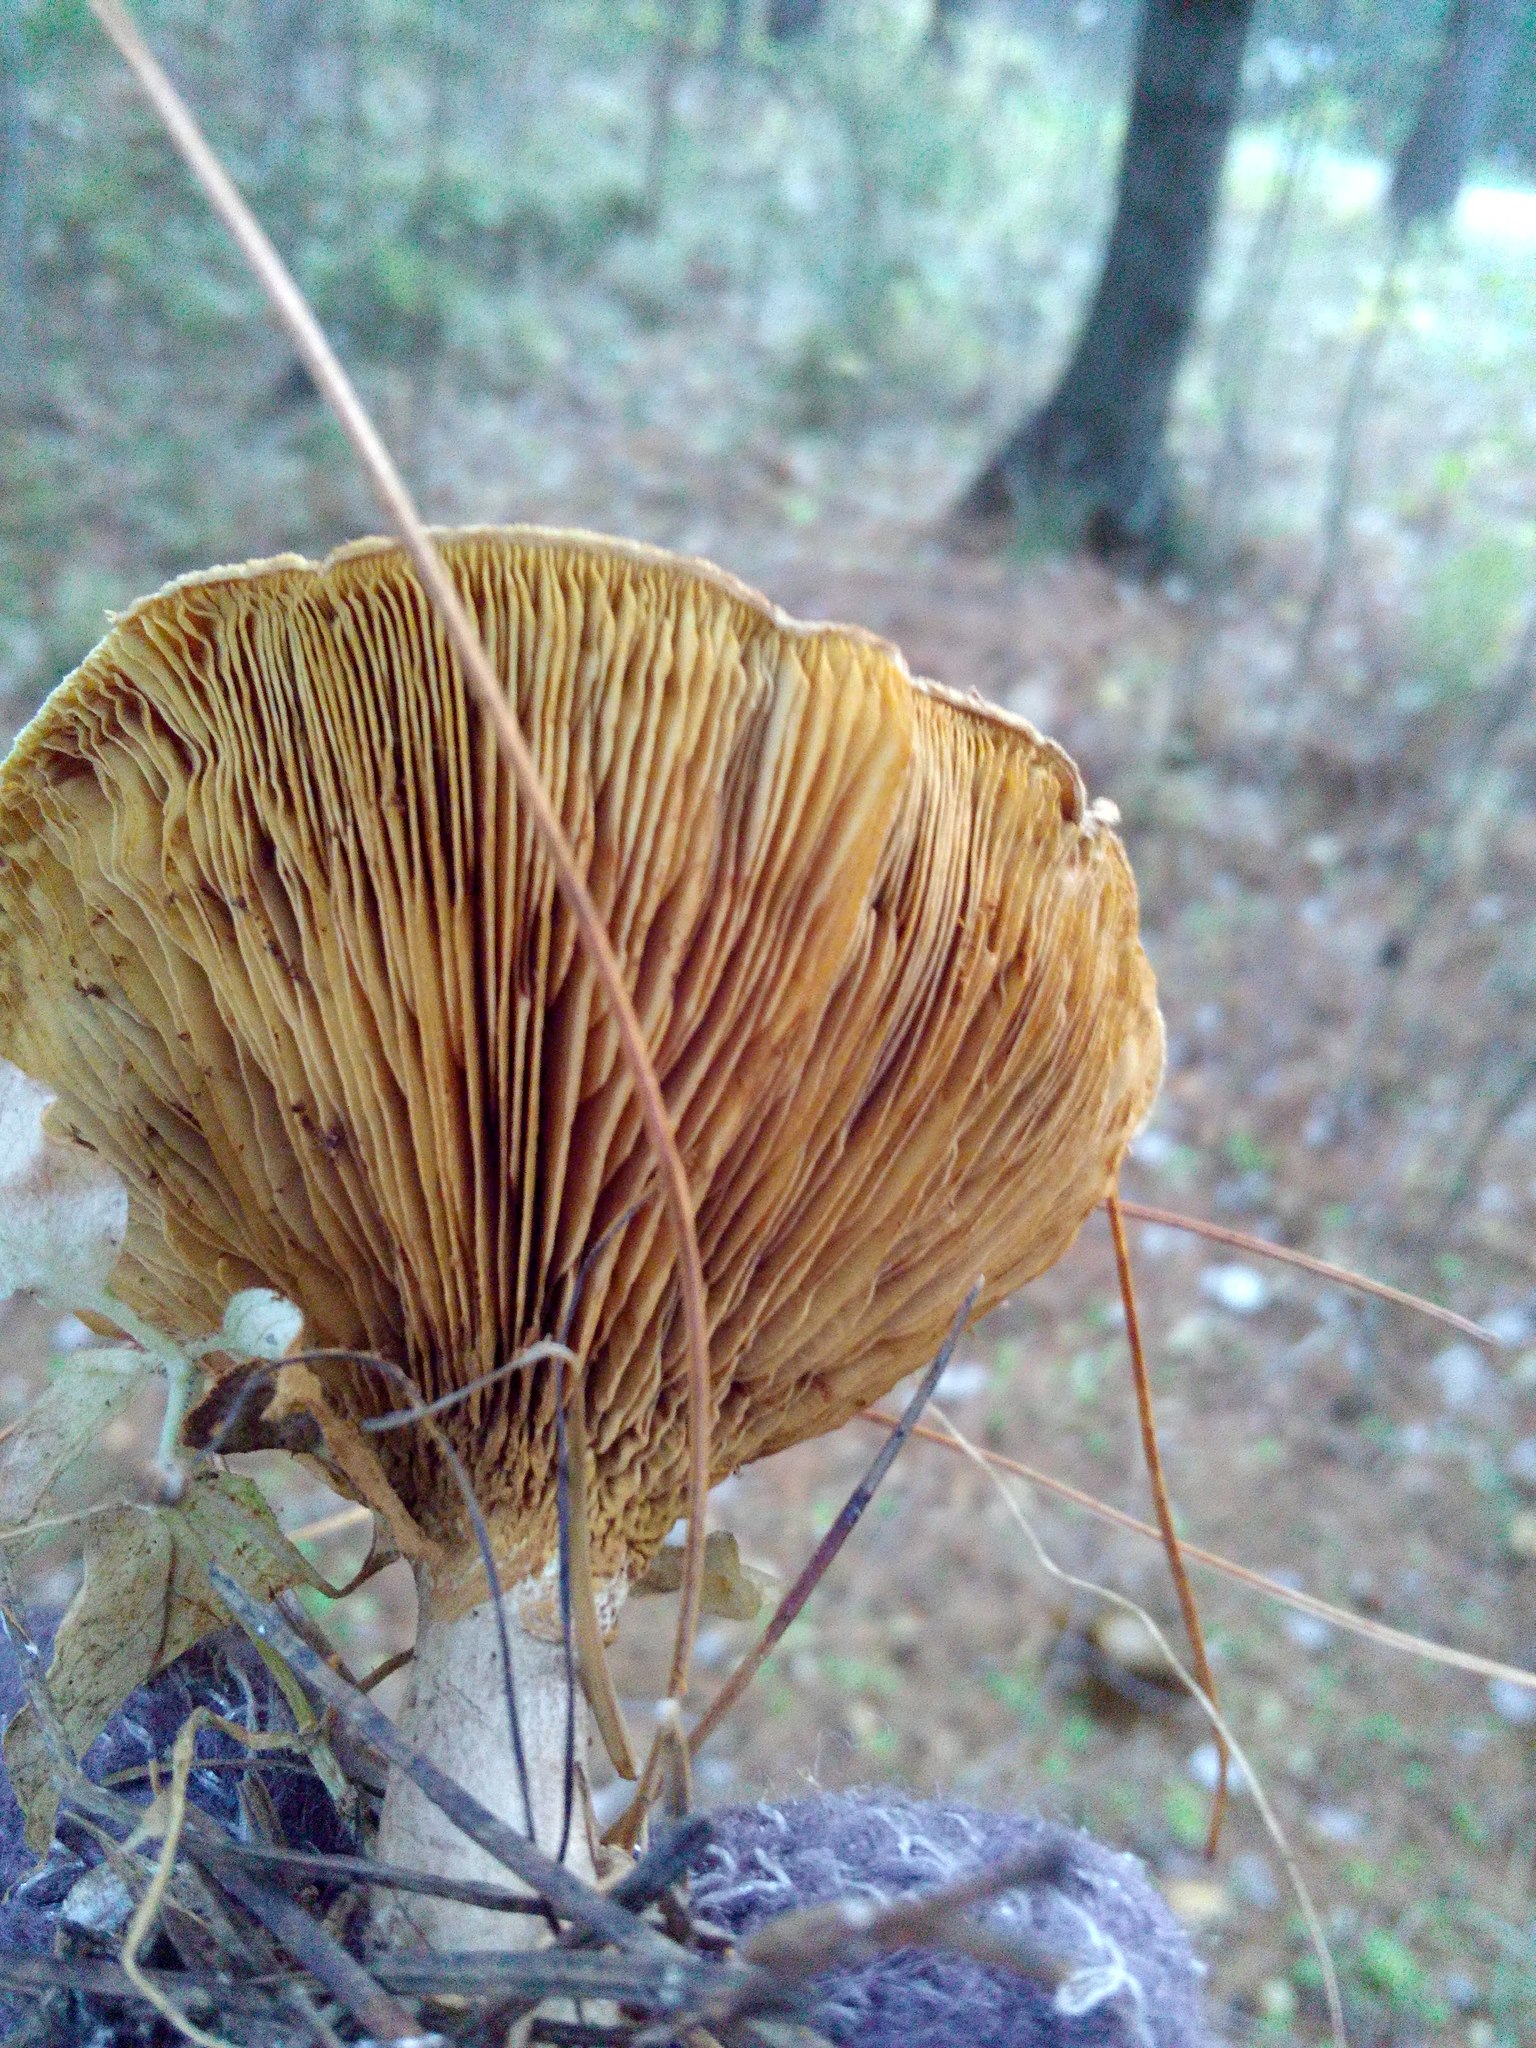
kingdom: Fungi
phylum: Basidiomycota
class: Agaricomycetes
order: Boletales
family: Paxillaceae
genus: Paxillus
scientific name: Paxillus involutus
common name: Brown roll rim
